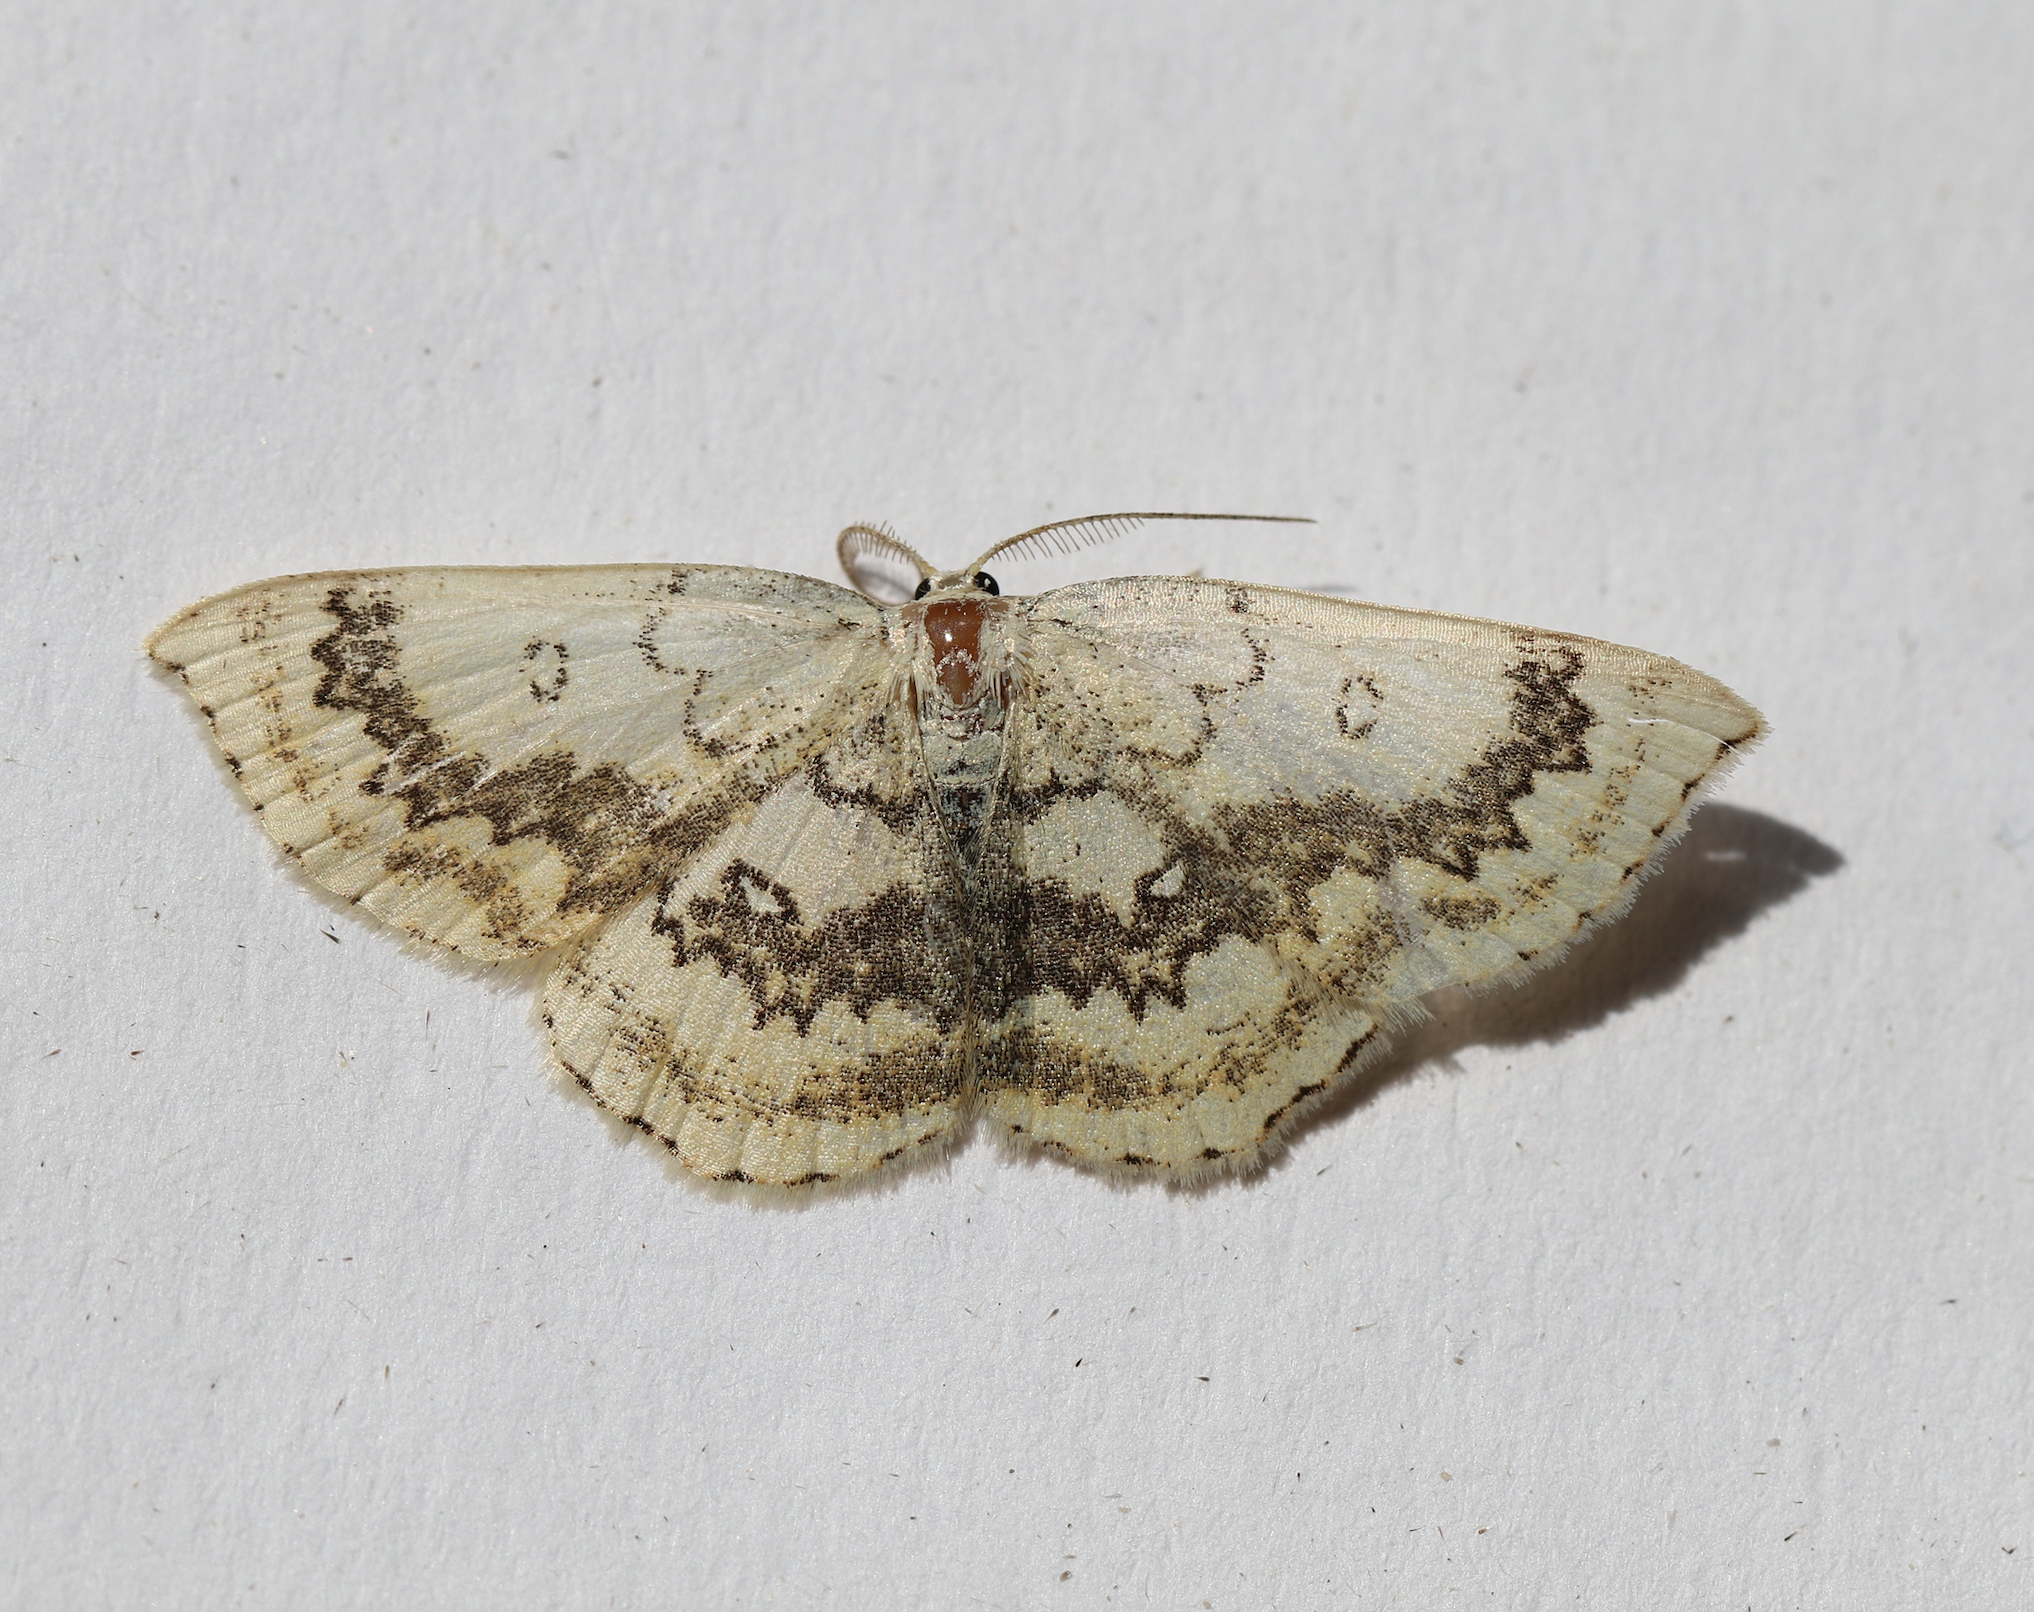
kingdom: Animalia
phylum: Arthropoda
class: Insecta
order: Lepidoptera
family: Geometridae
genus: Cyclophora
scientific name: Cyclophora annularia
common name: Mocha
